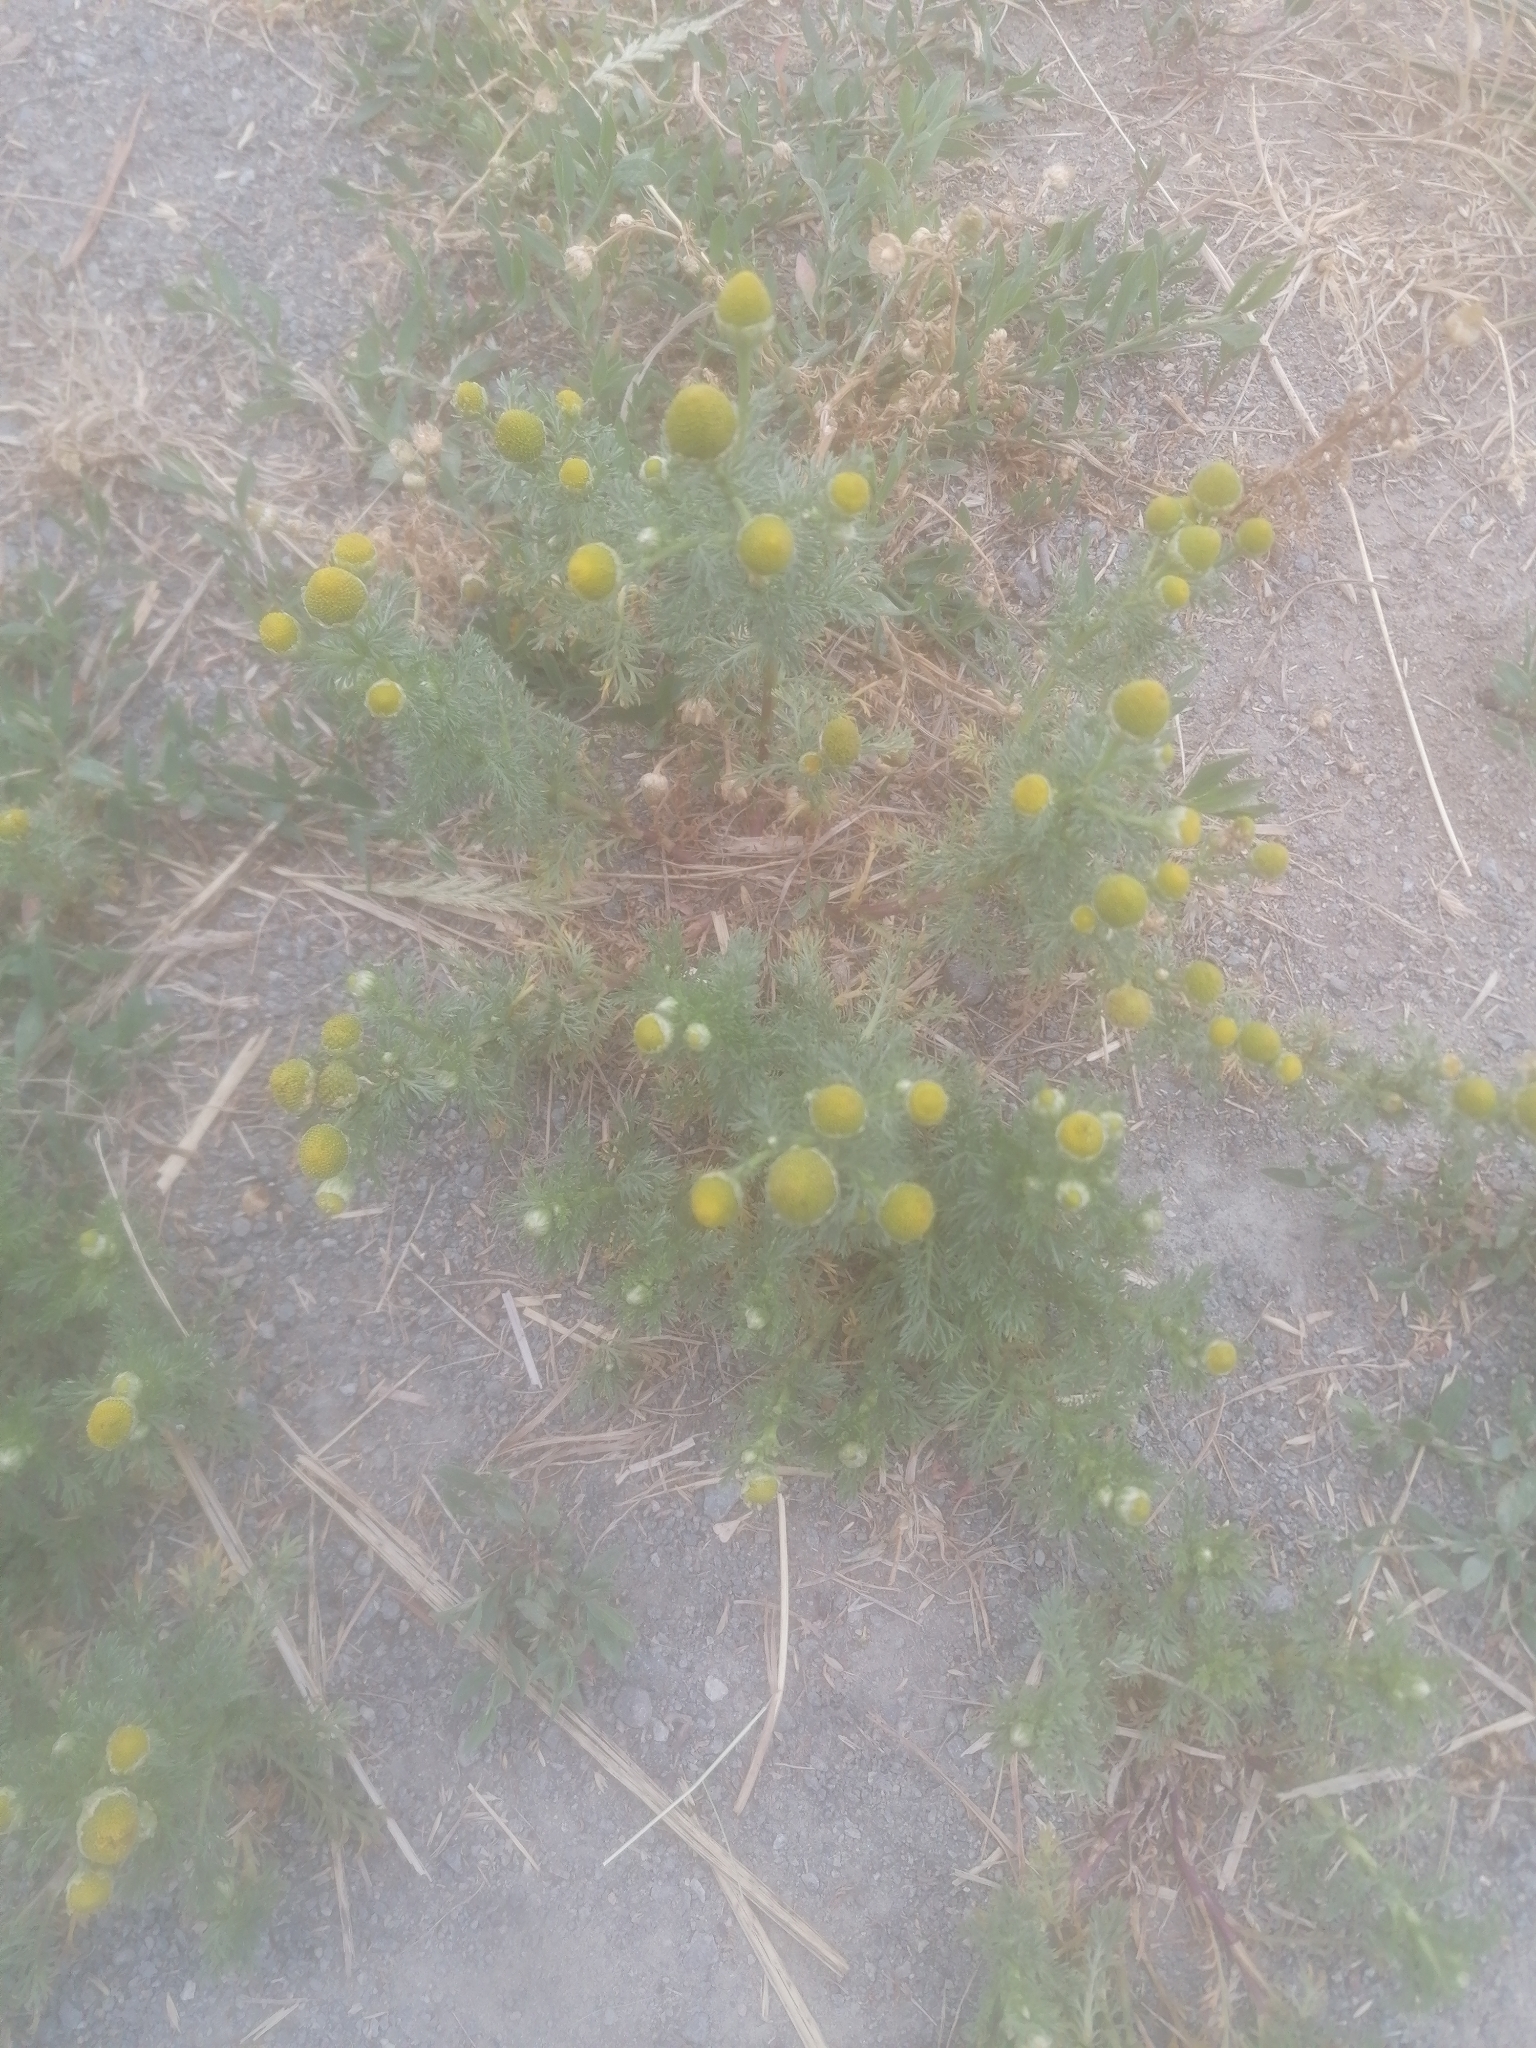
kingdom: Plantae
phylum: Tracheophyta
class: Magnoliopsida
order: Asterales
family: Asteraceae
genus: Matricaria
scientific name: Matricaria discoidea
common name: Disc mayweed
